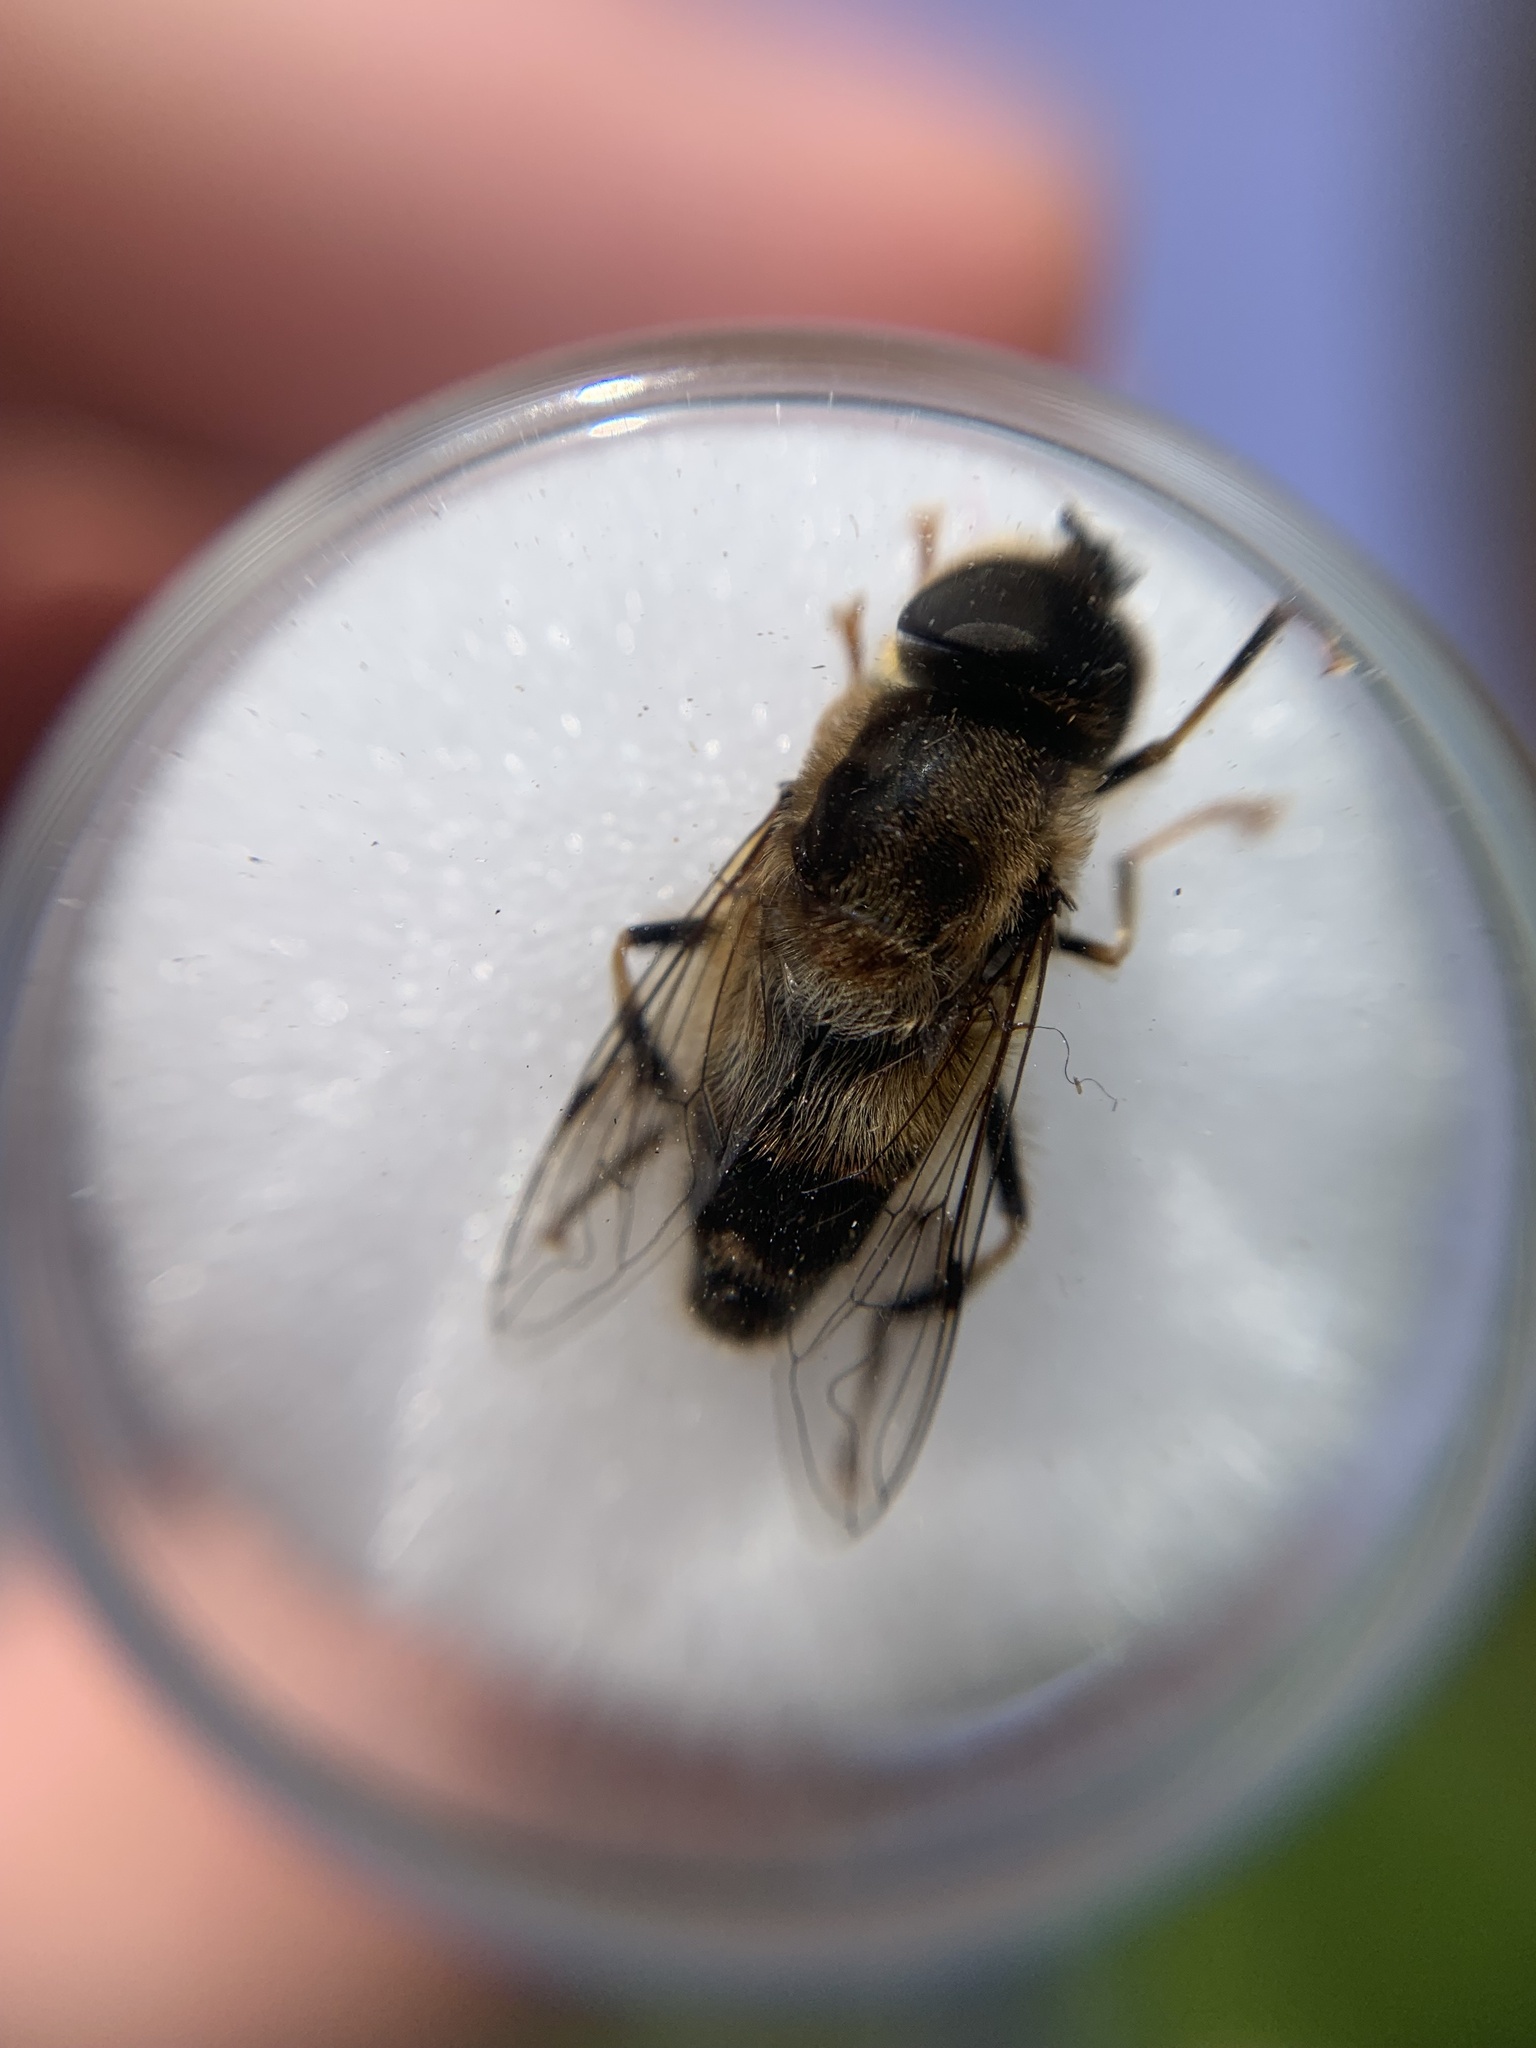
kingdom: Animalia
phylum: Arthropoda
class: Insecta
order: Diptera
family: Syrphidae
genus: Eristalis
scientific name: Eristalis pertinax
